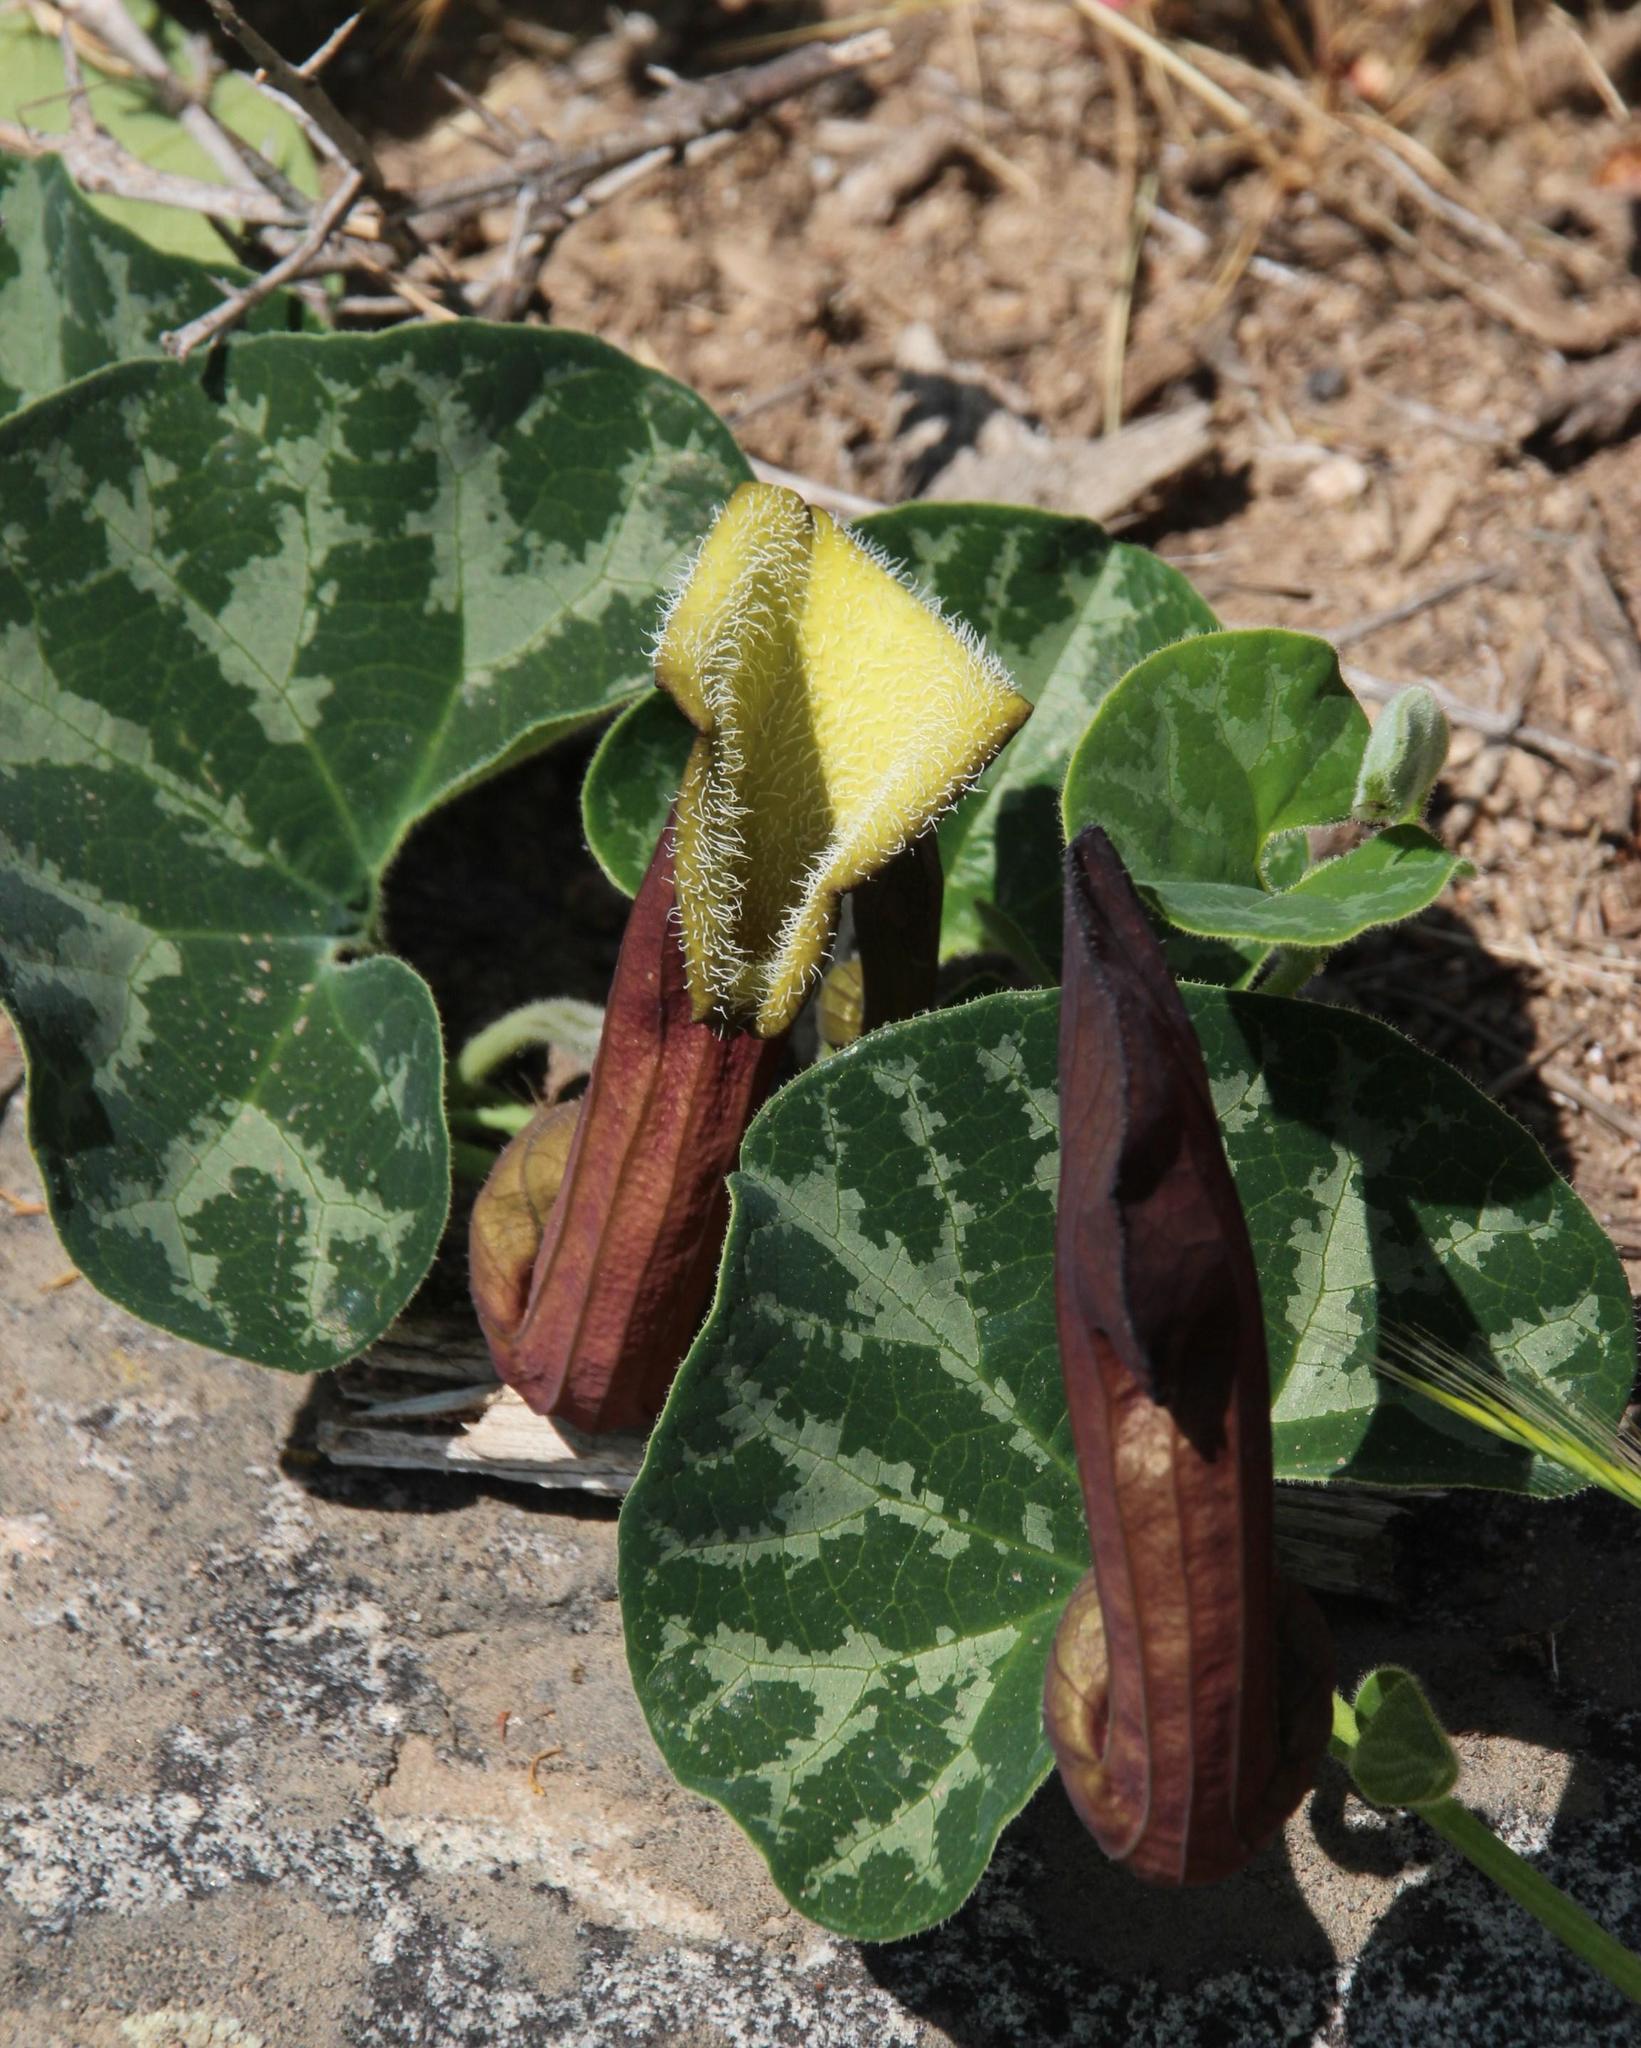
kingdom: Plantae
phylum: Tracheophyta
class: Magnoliopsida
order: Piperales
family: Aristolochiaceae
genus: Aristolochia
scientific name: Aristolochia chilensis
